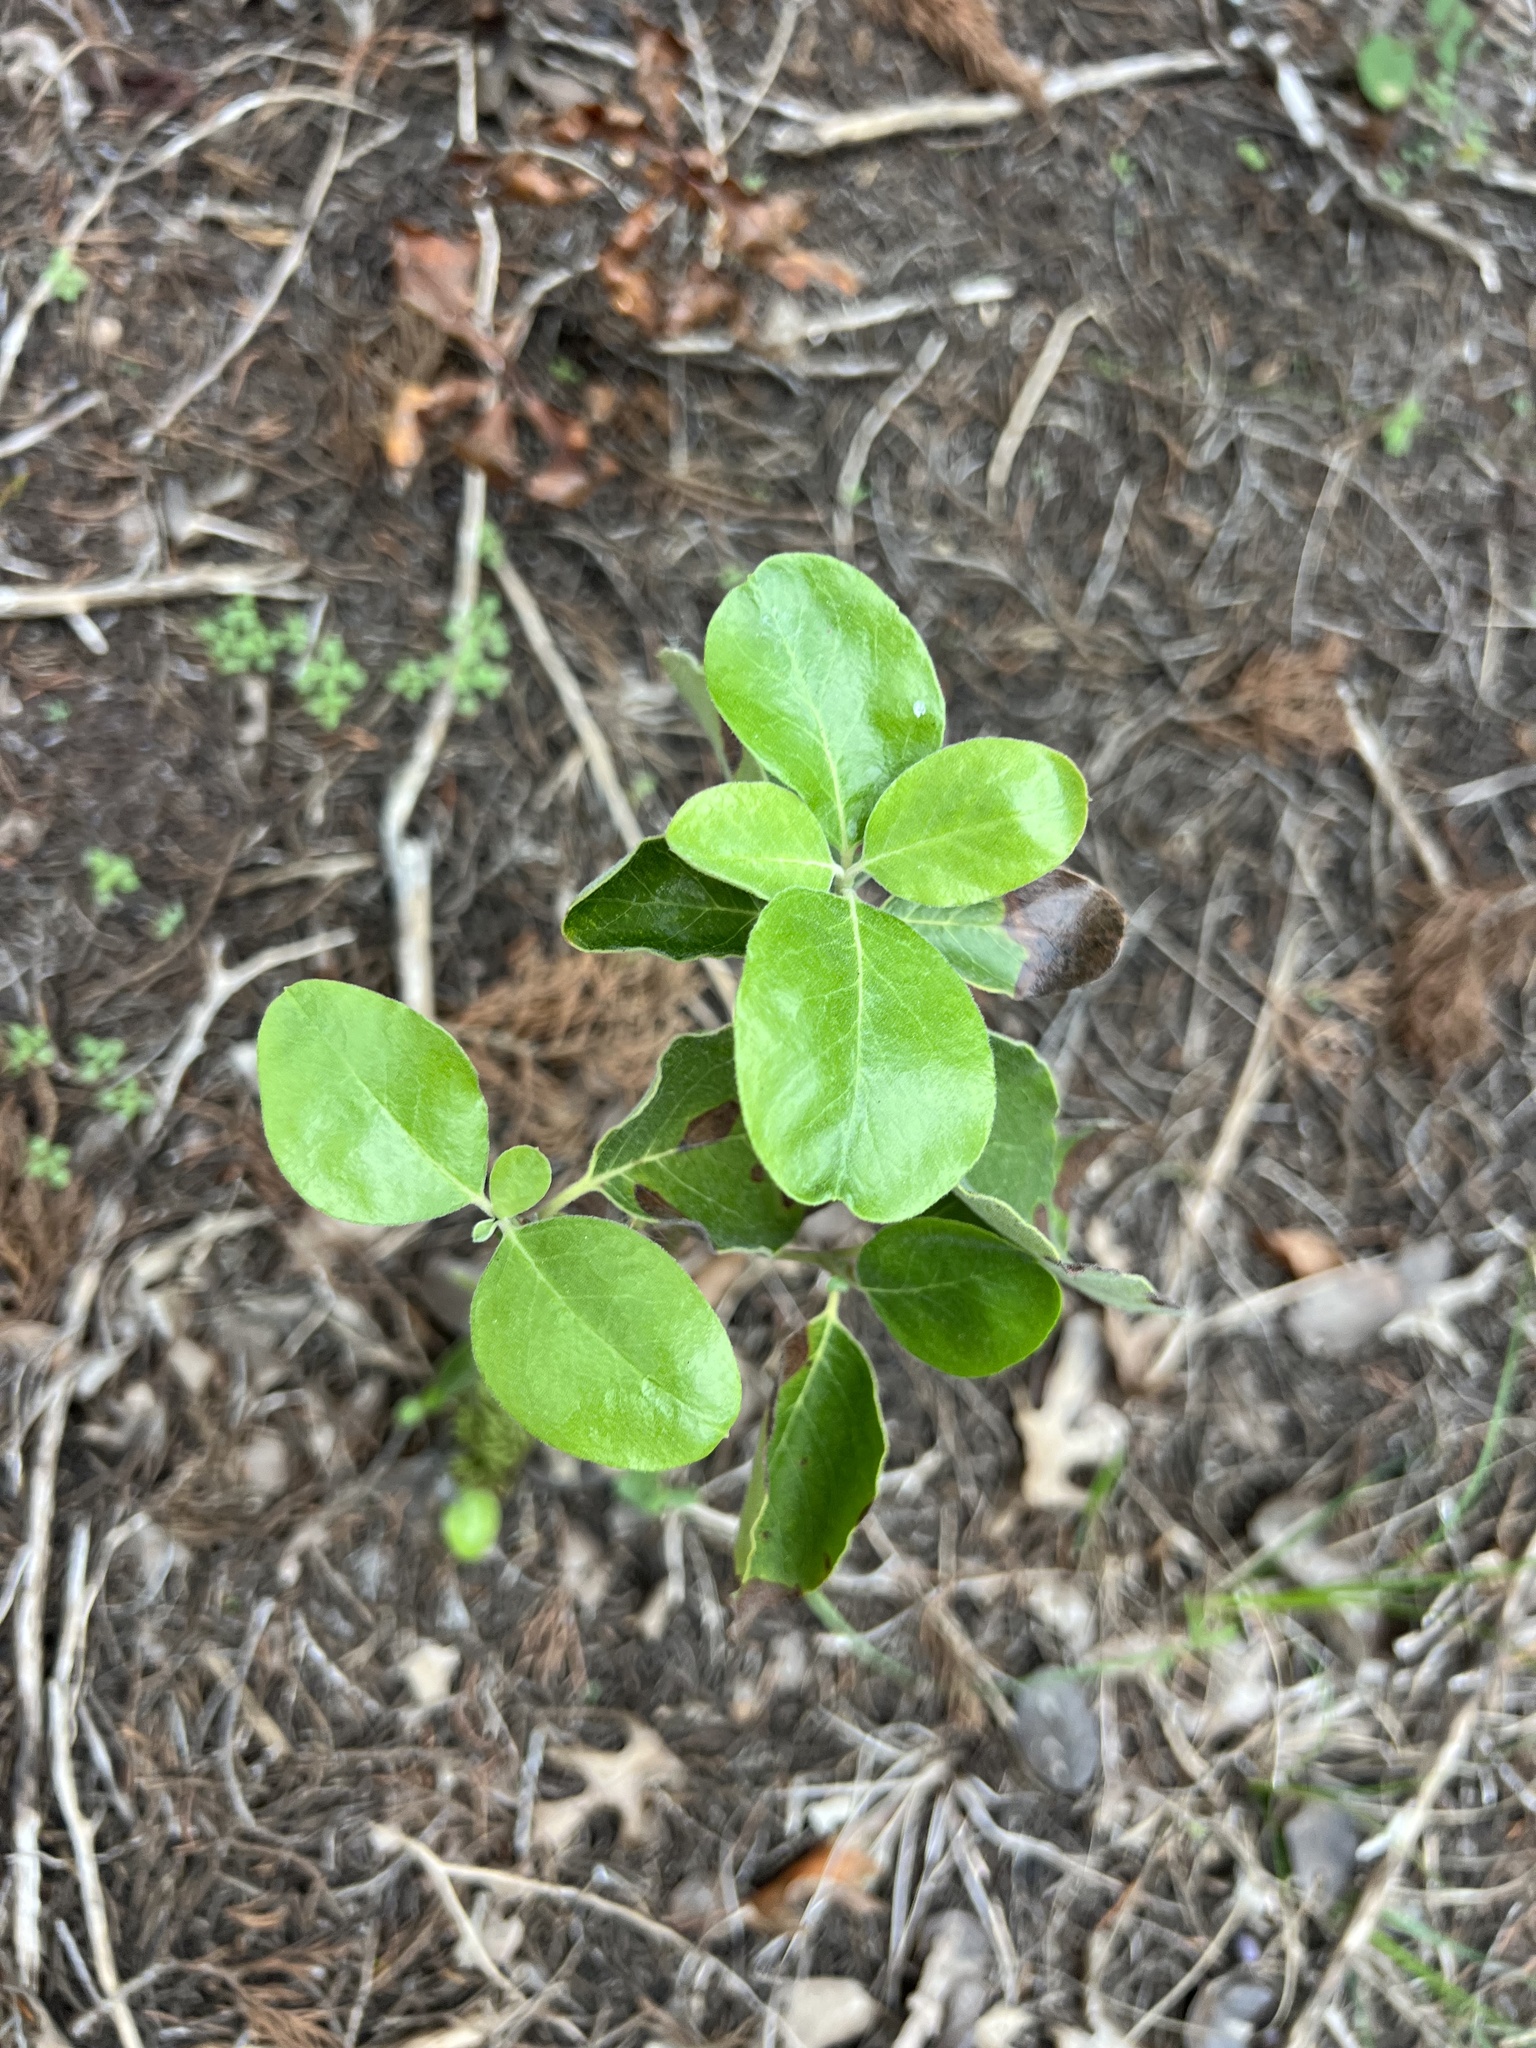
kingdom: Plantae
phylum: Tracheophyta
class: Magnoliopsida
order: Garryales
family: Garryaceae
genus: Garrya
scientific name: Garrya lindheimeri
